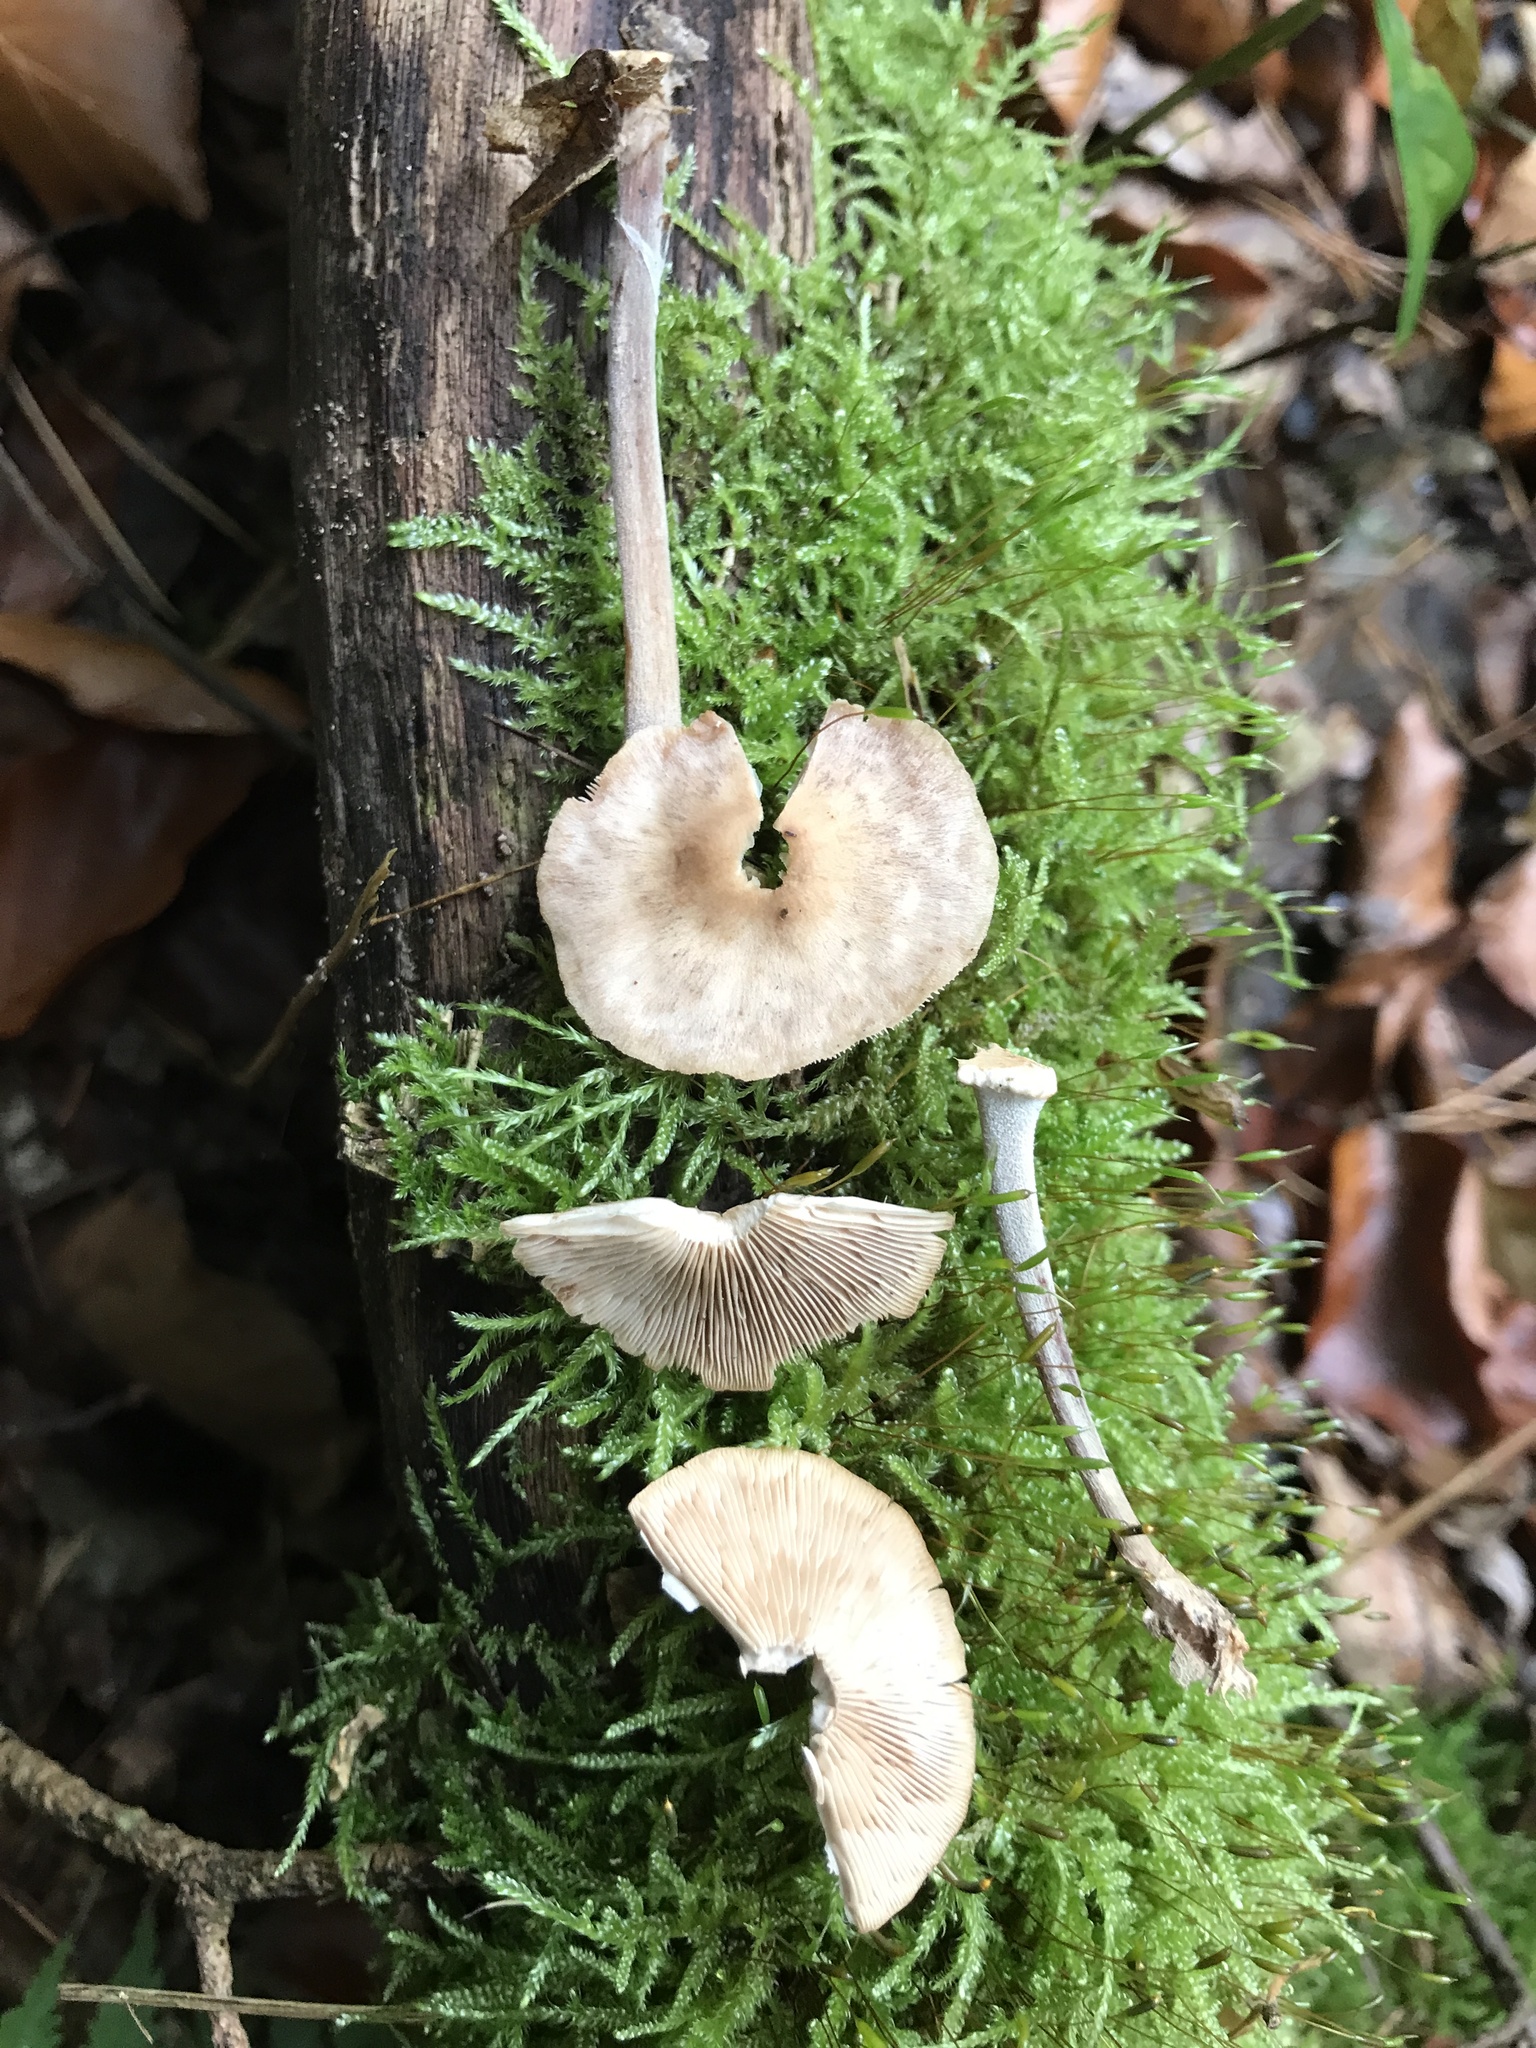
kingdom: Fungi
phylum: Basidiomycota
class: Agaricomycetes
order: Agaricales
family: Omphalotaceae
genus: Collybiopsis
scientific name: Collybiopsis confluens
